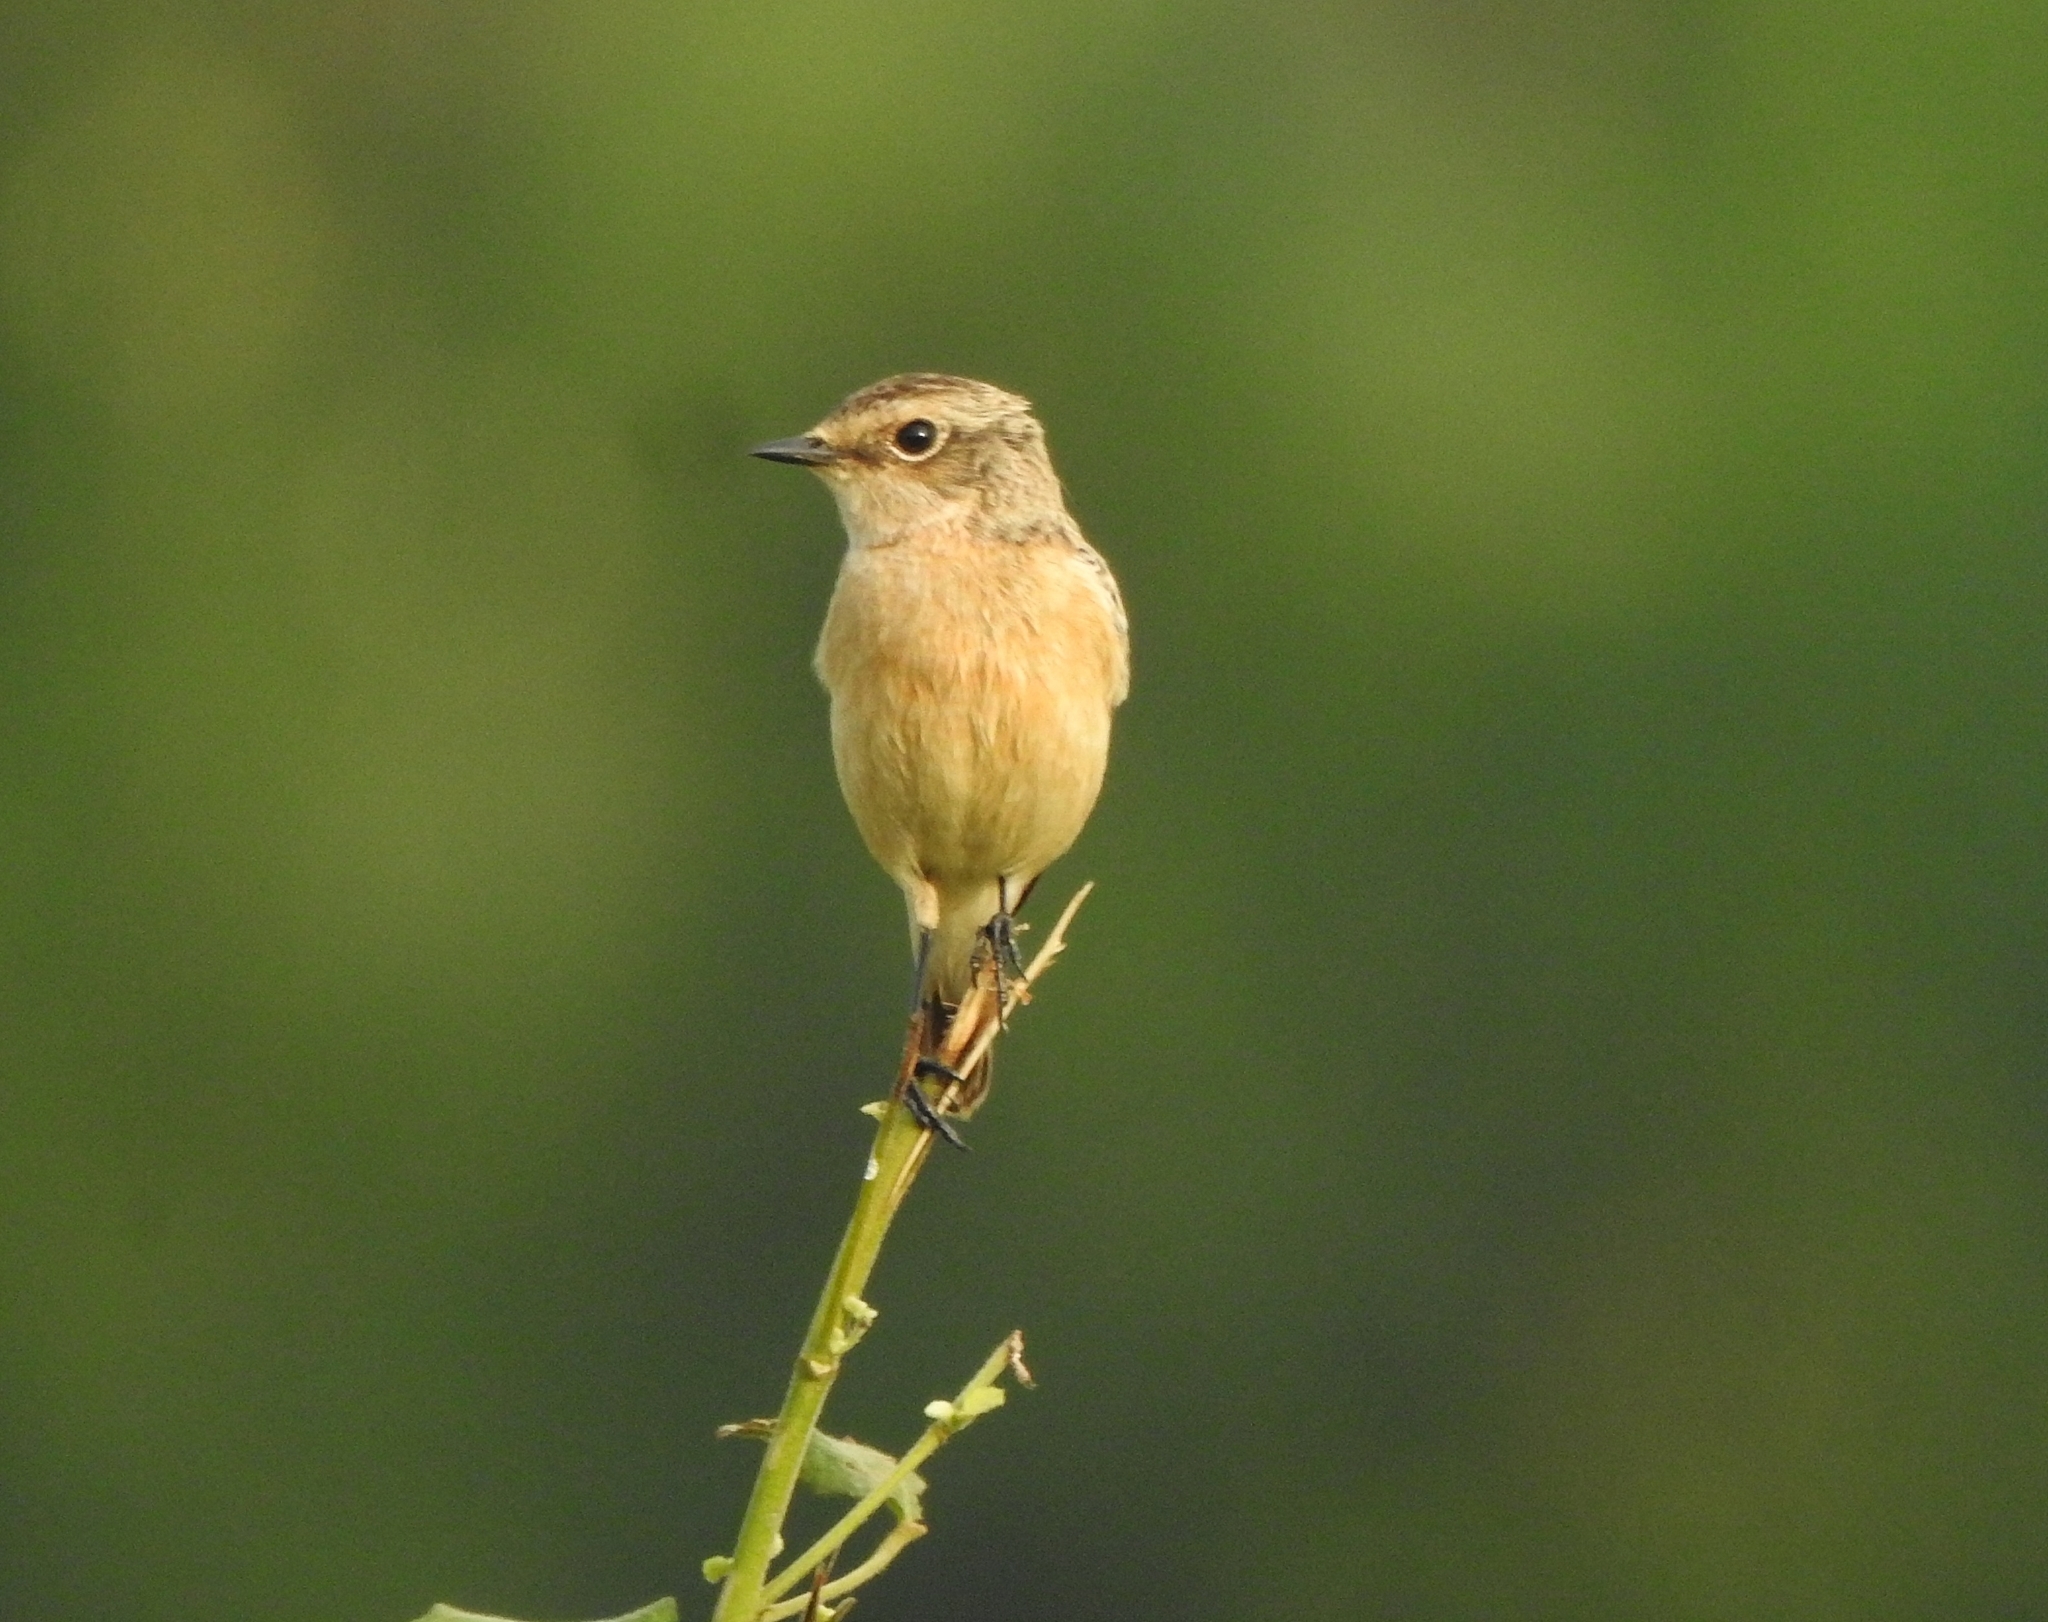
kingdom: Animalia
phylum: Chordata
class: Aves
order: Passeriformes
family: Muscicapidae
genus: Saxicola
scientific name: Saxicola maurus
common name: Siberian stonechat
